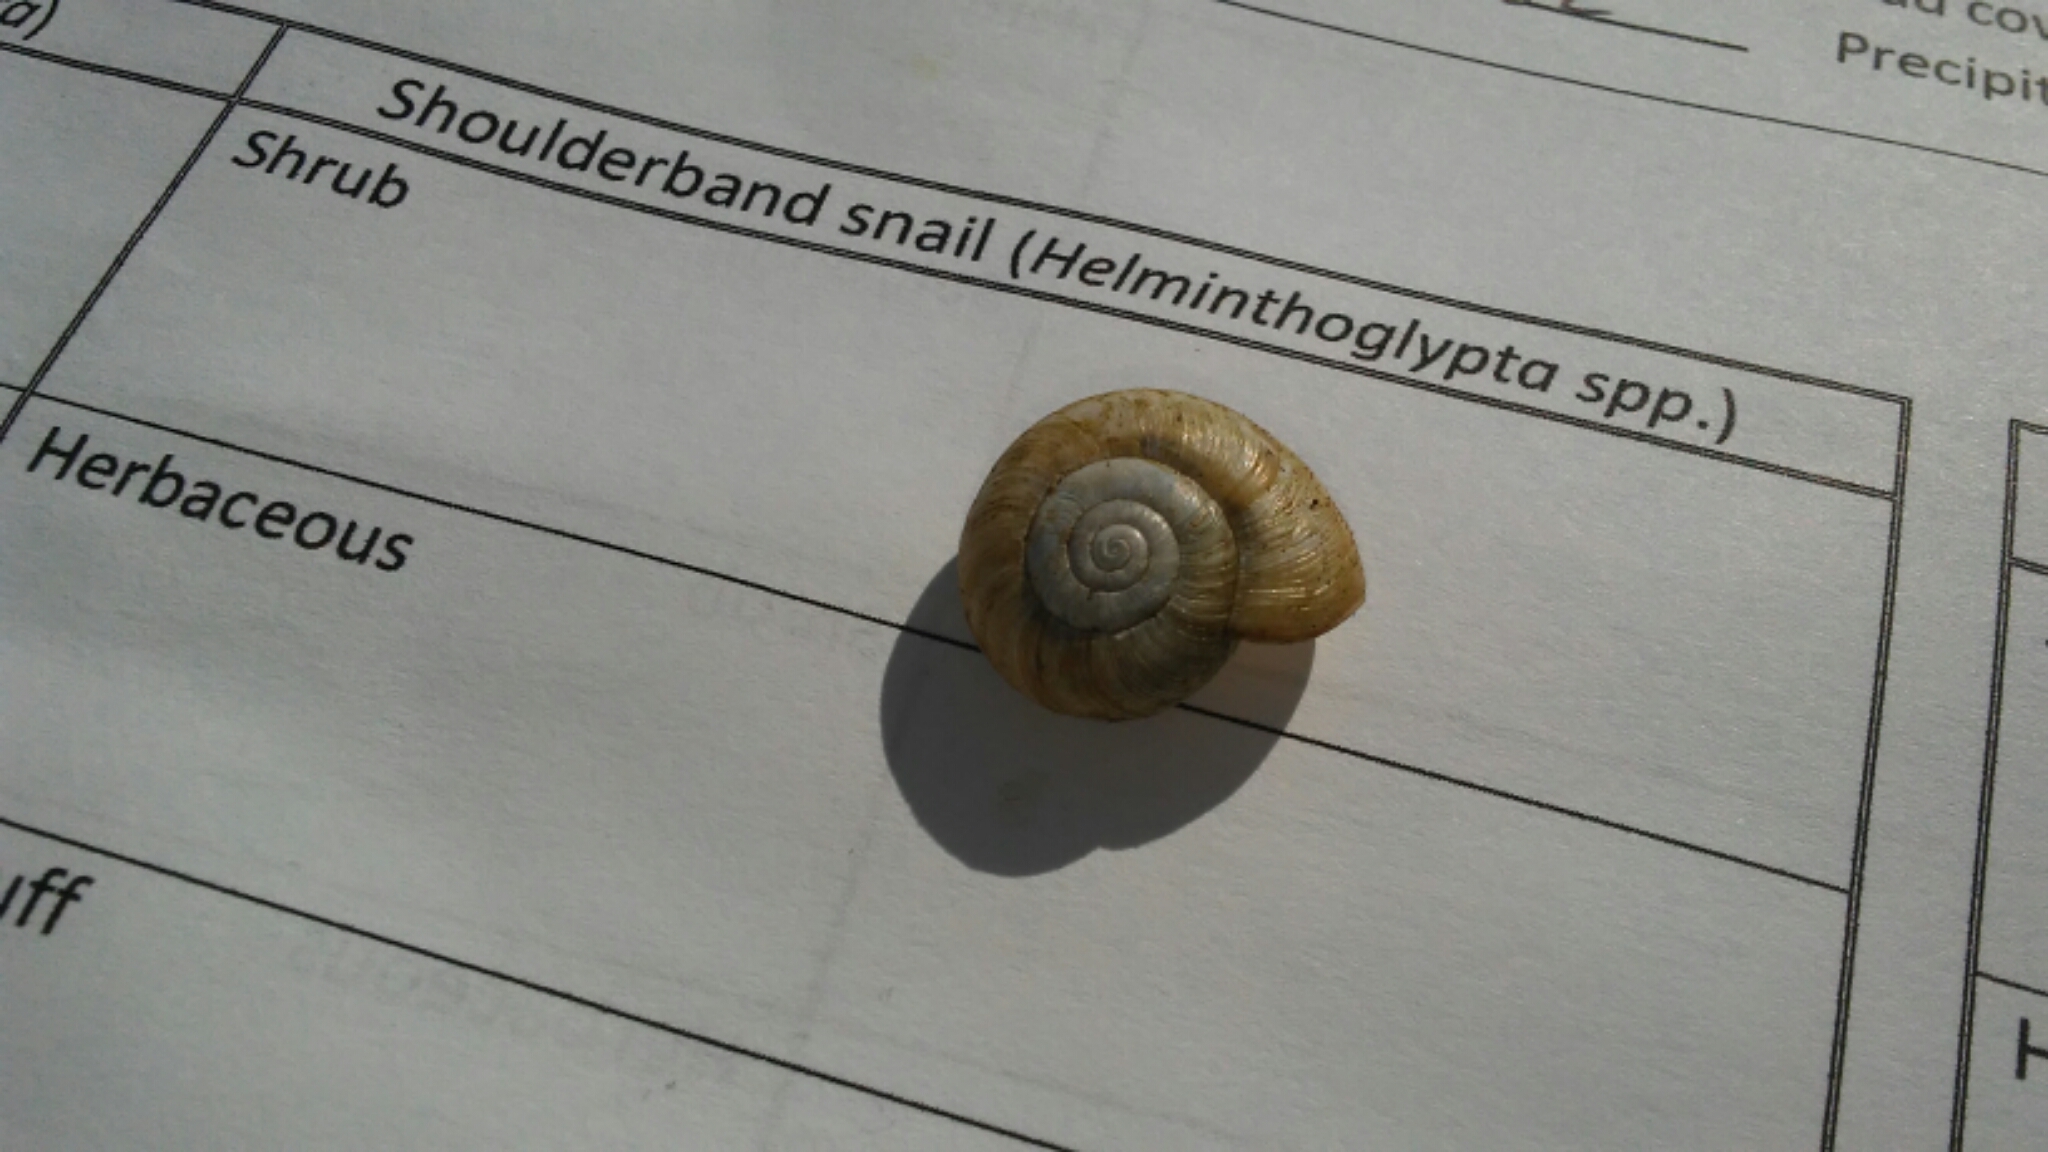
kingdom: Animalia
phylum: Mollusca
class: Gastropoda
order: Stylommatophora
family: Haplotrematidae
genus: Haplotrema
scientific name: Haplotrema minimum
